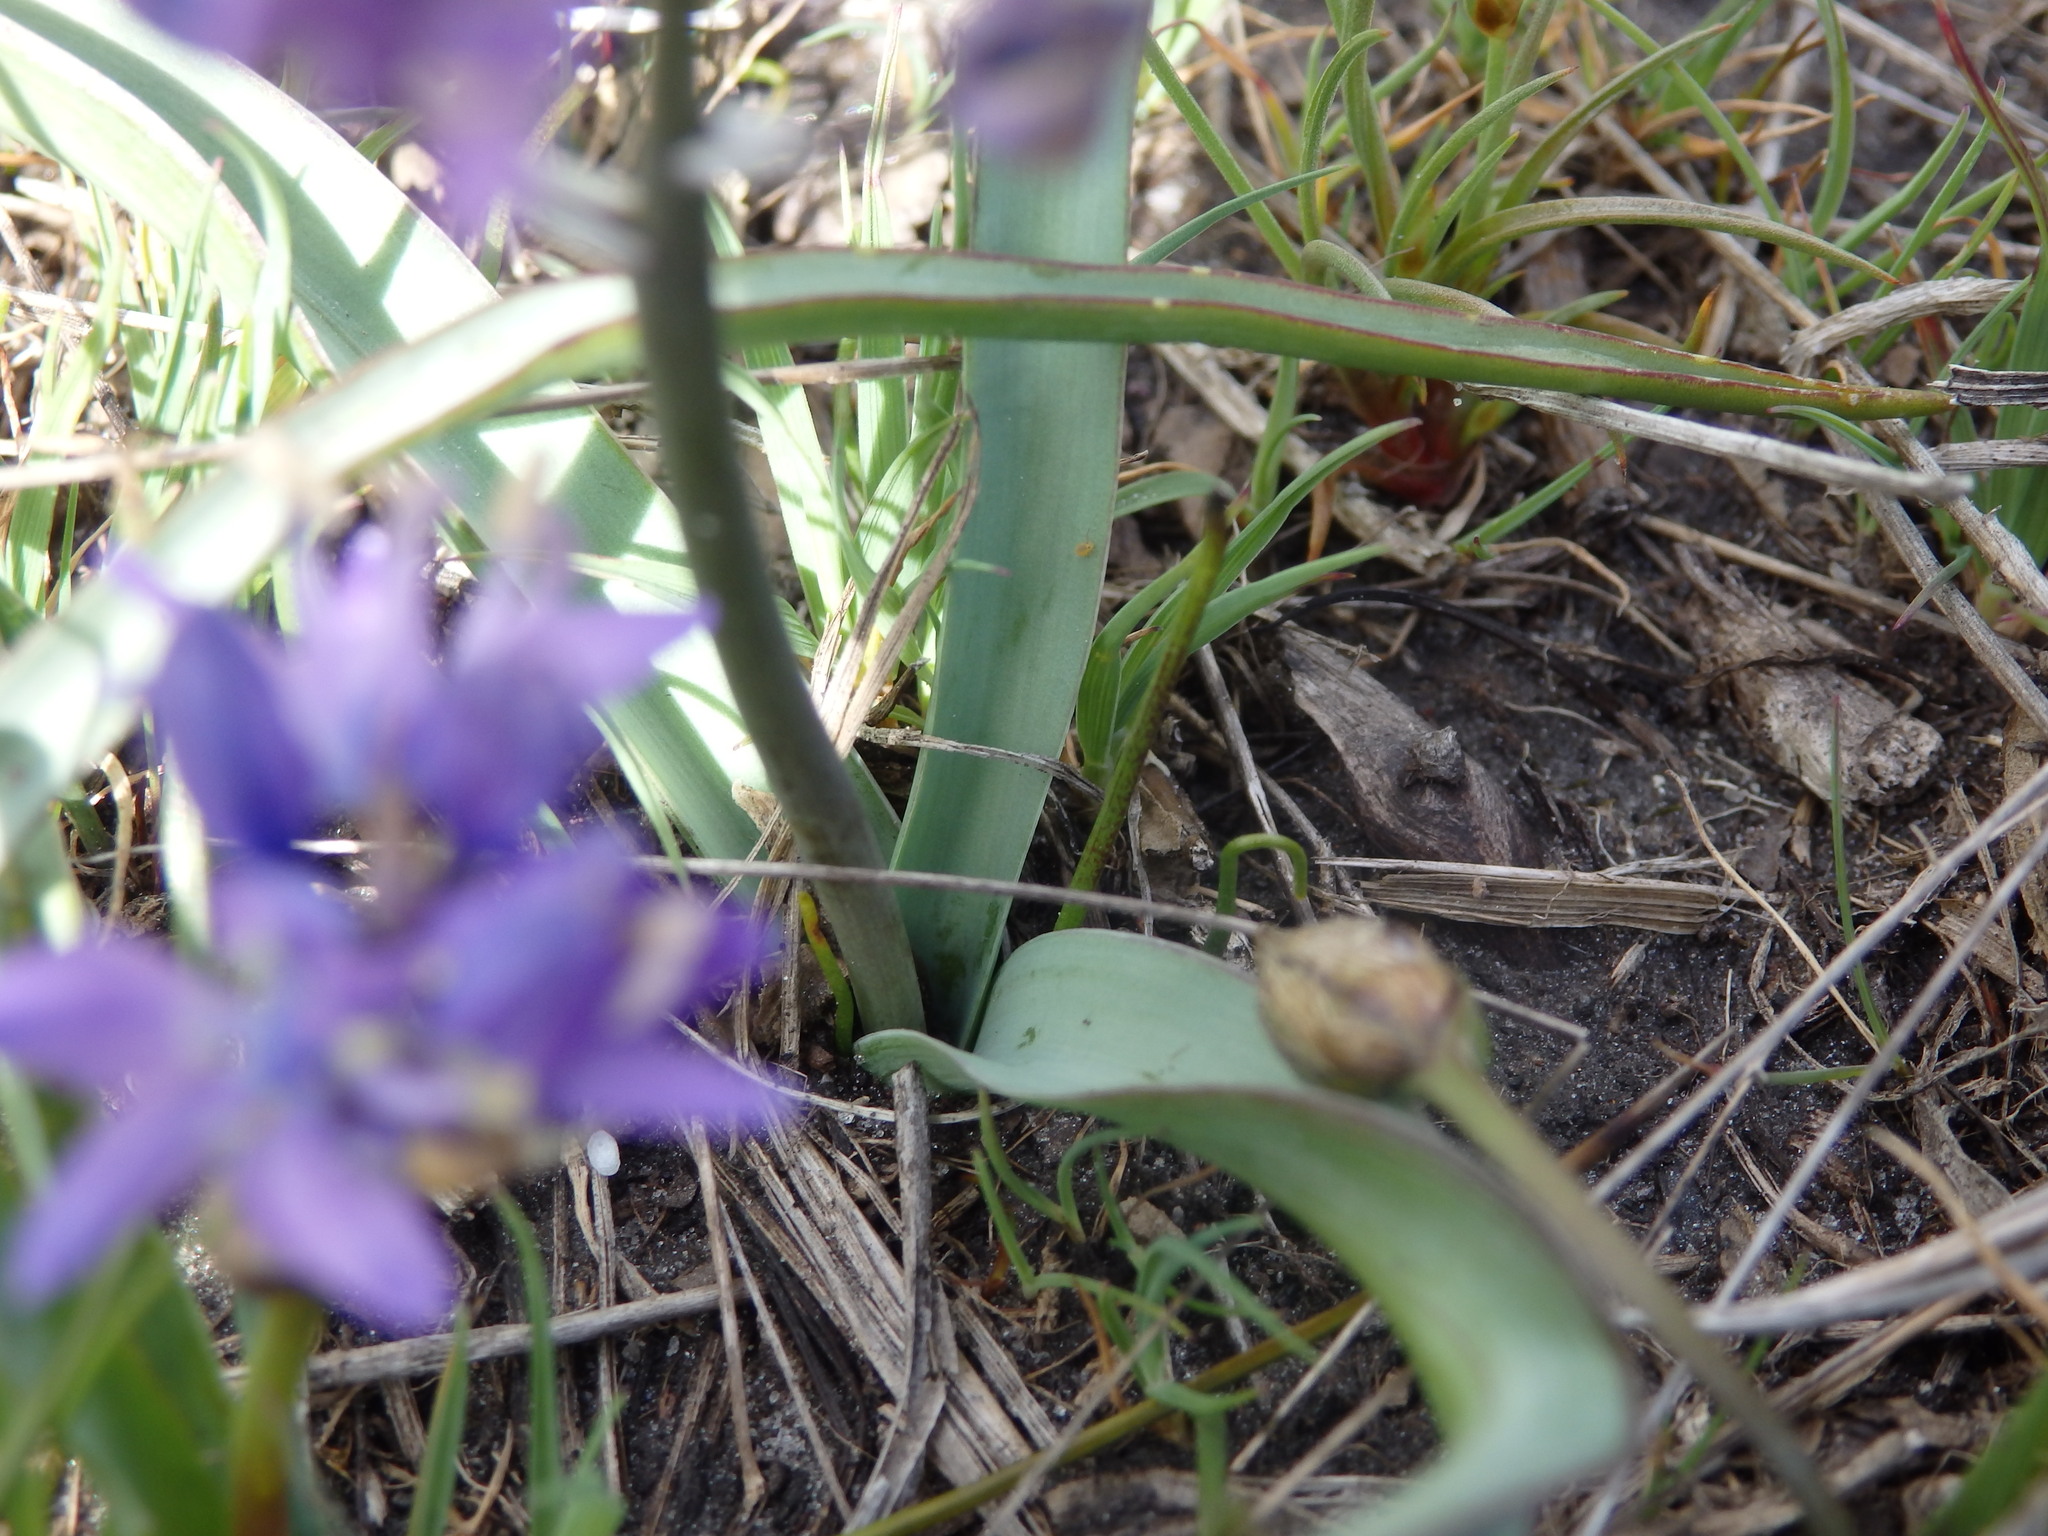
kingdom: Plantae
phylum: Tracheophyta
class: Liliopsida
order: Asparagales
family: Asparagaceae
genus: Scilla
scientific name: Scilla verna
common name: Spring squill
